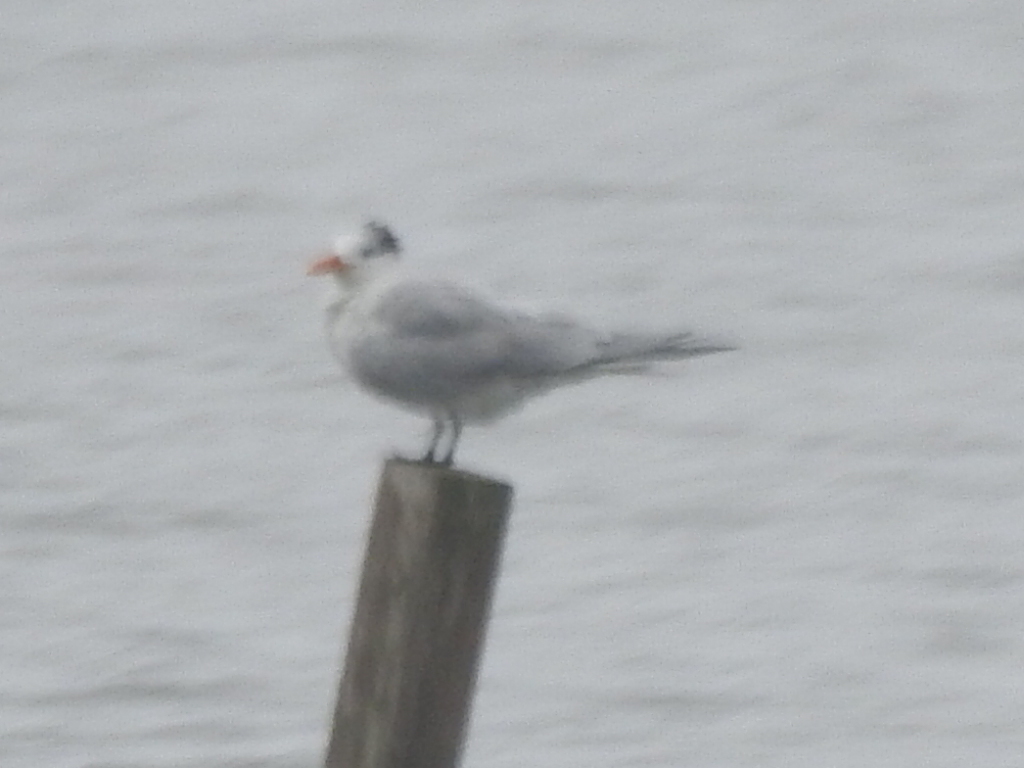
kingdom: Animalia
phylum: Chordata
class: Aves
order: Charadriiformes
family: Laridae
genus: Thalasseus
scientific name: Thalasseus maximus
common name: Royal tern
